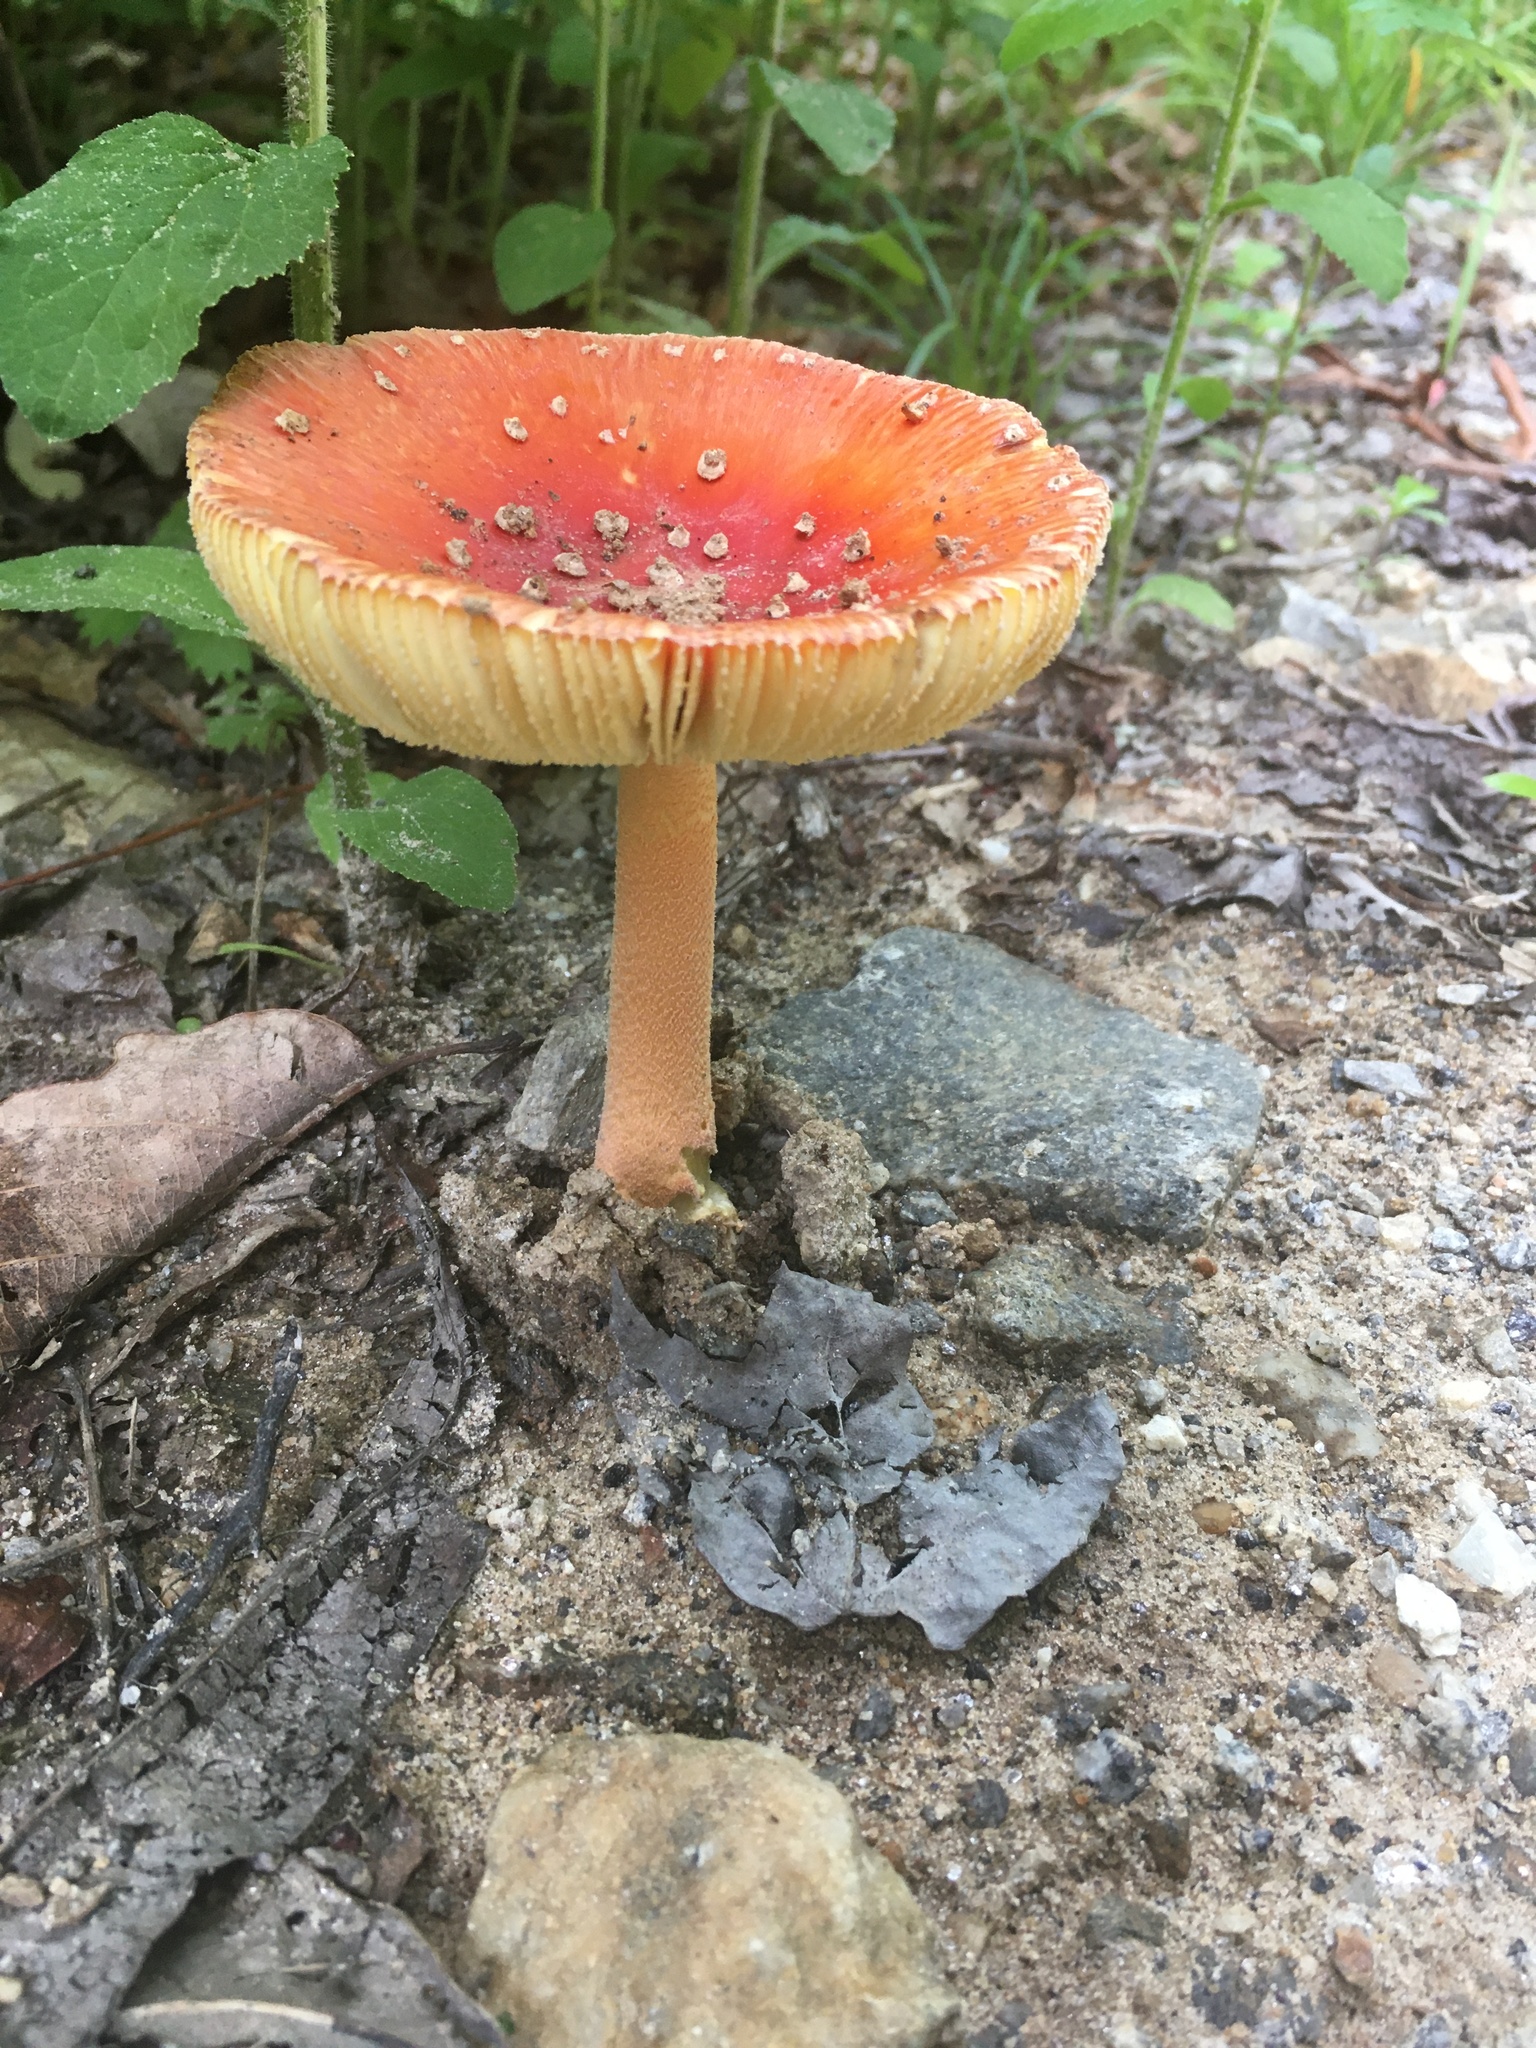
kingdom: Fungi
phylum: Basidiomycota
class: Agaricomycetes
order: Agaricales
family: Amanitaceae
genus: Amanita
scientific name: Amanita parcivolvata
